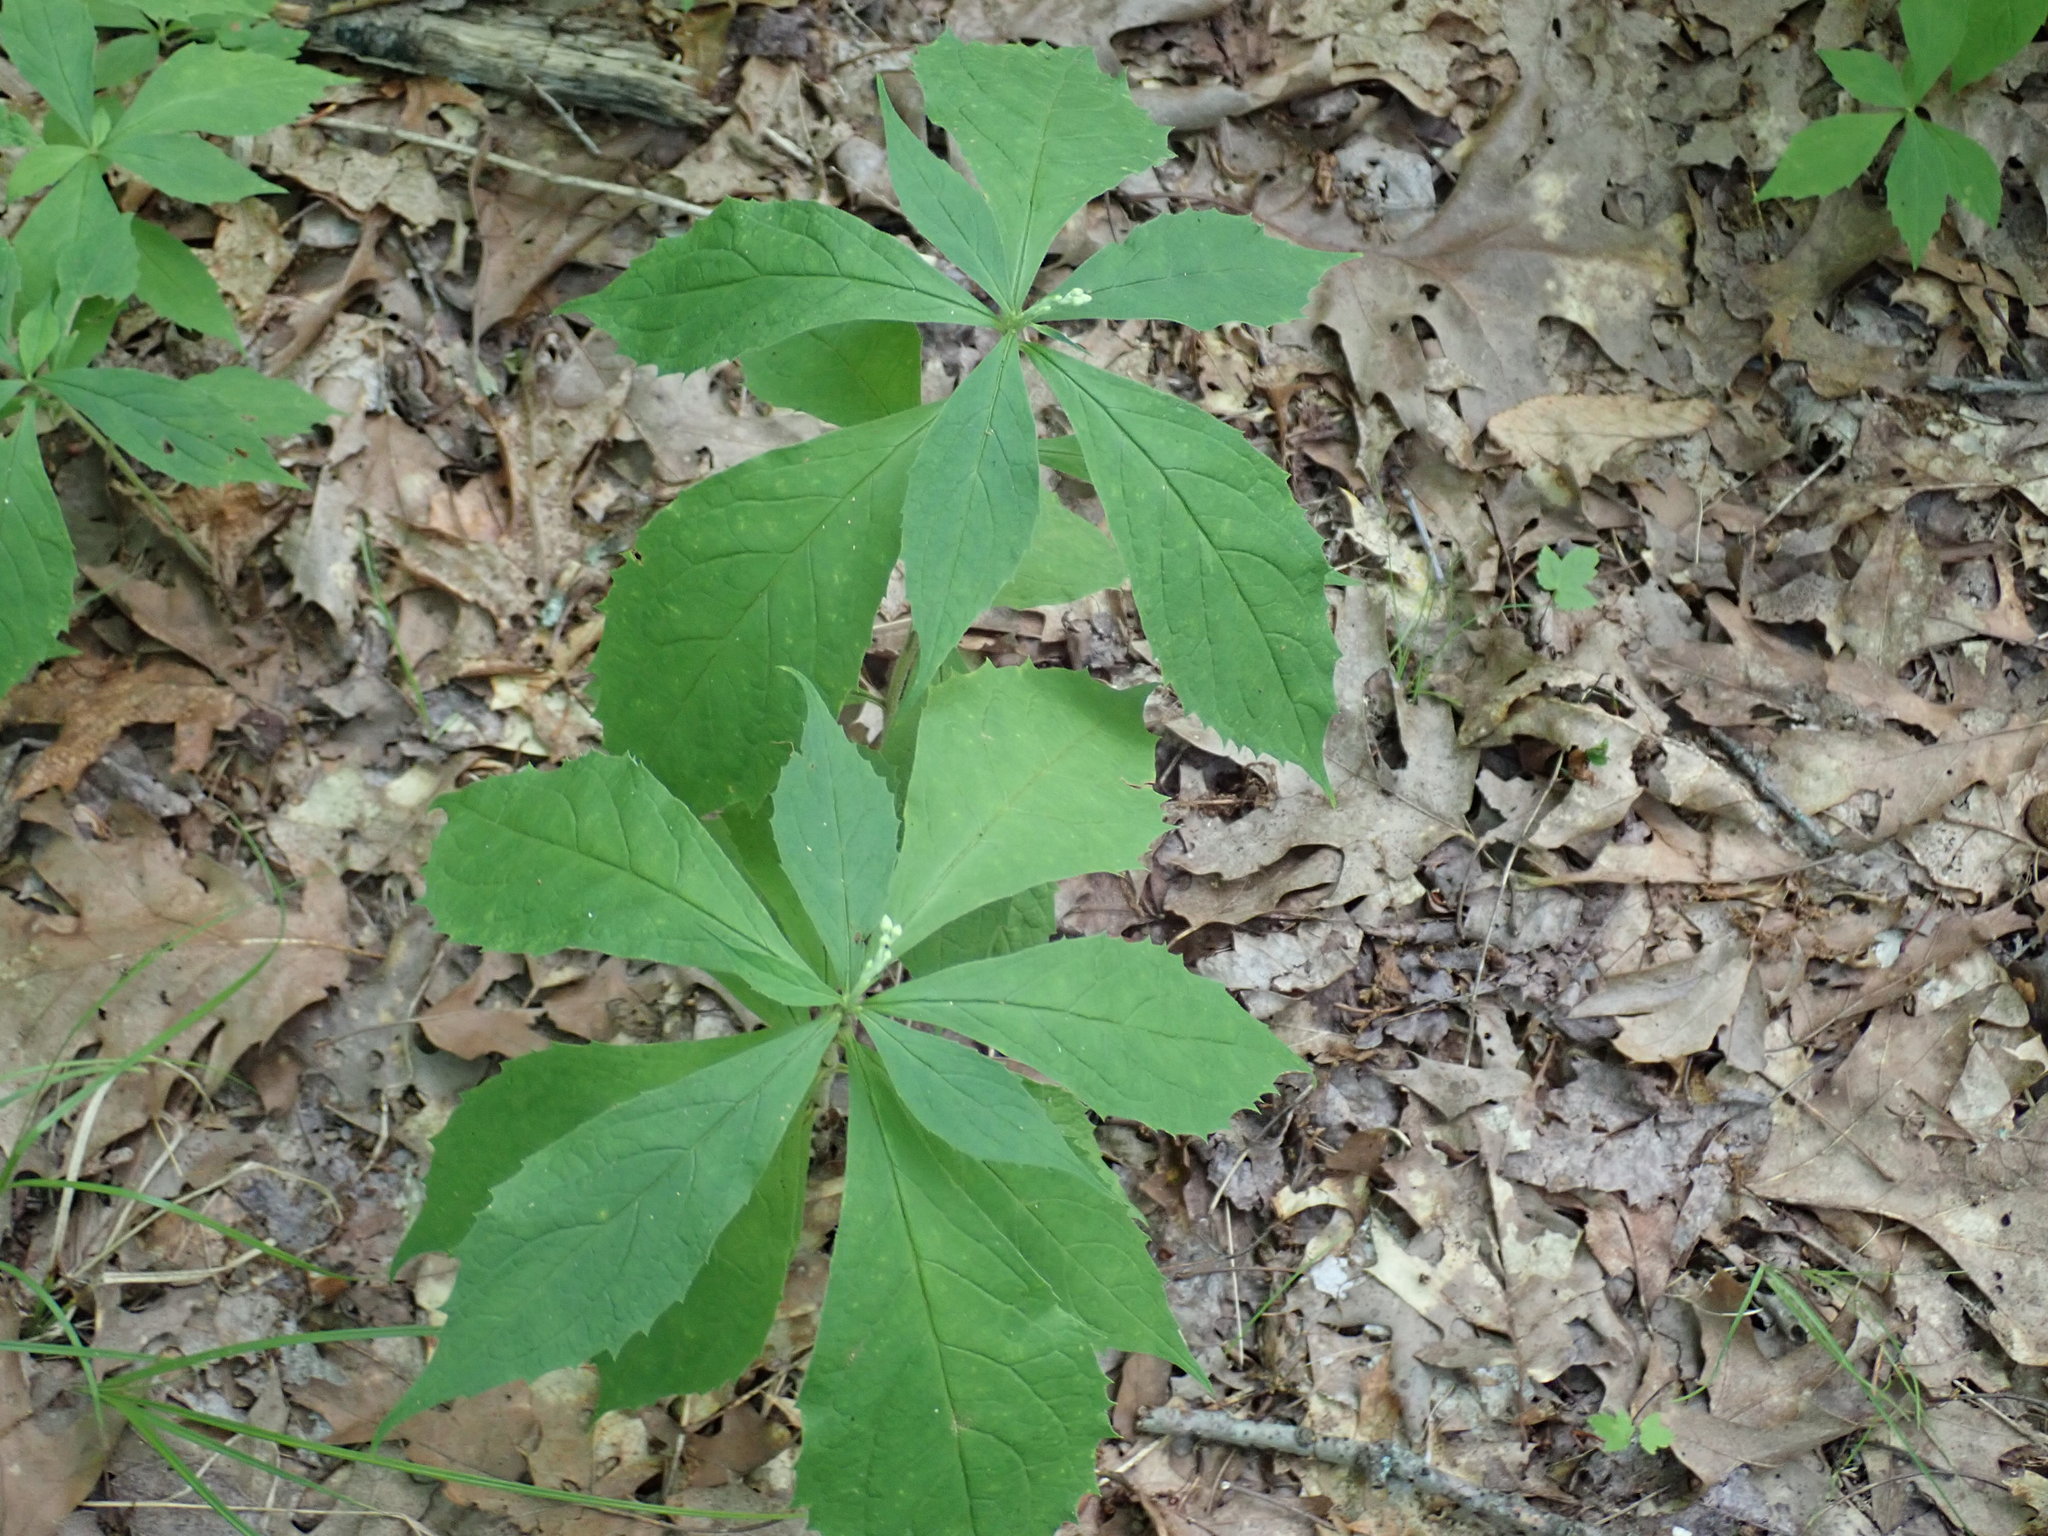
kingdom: Plantae
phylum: Tracheophyta
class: Magnoliopsida
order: Asterales
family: Asteraceae
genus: Oclemena
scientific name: Oclemena acuminata
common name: Mountain aster
